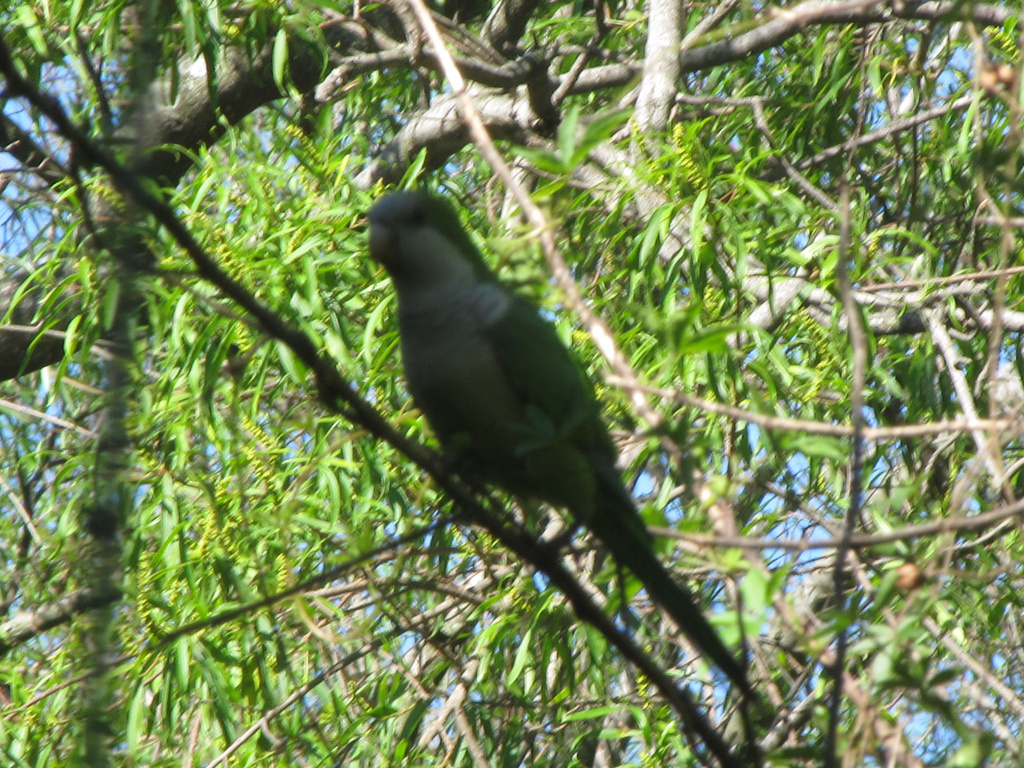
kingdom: Animalia
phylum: Chordata
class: Aves
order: Psittaciformes
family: Psittacidae
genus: Myiopsitta
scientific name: Myiopsitta monachus
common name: Monk parakeet
